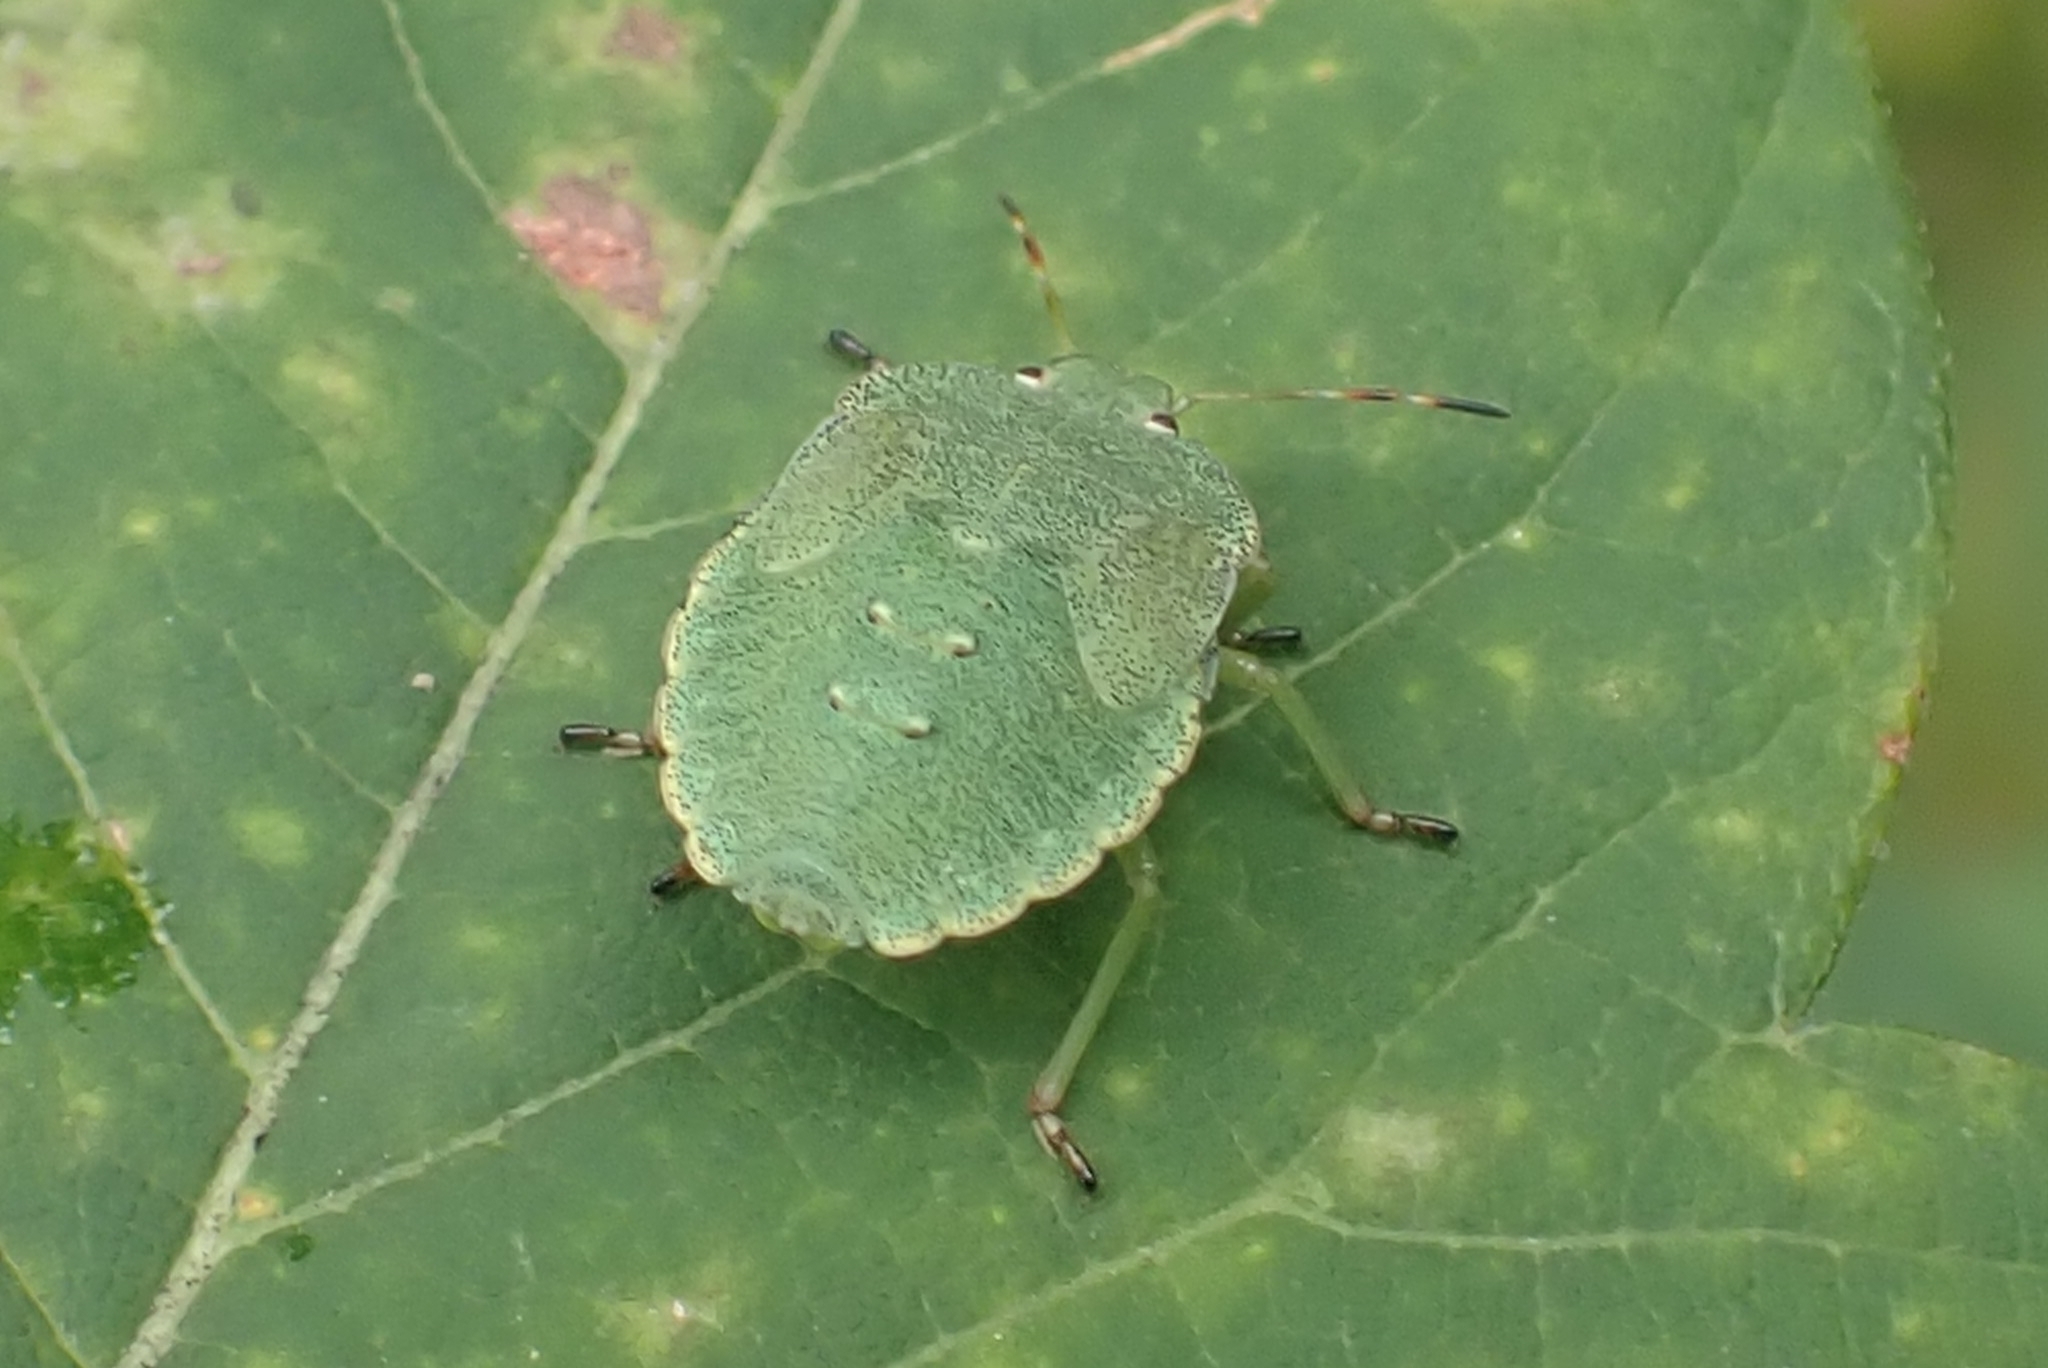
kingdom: Animalia
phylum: Arthropoda
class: Insecta
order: Hemiptera
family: Pentatomidae
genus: Palomena
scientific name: Palomena prasina
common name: Green shieldbug
